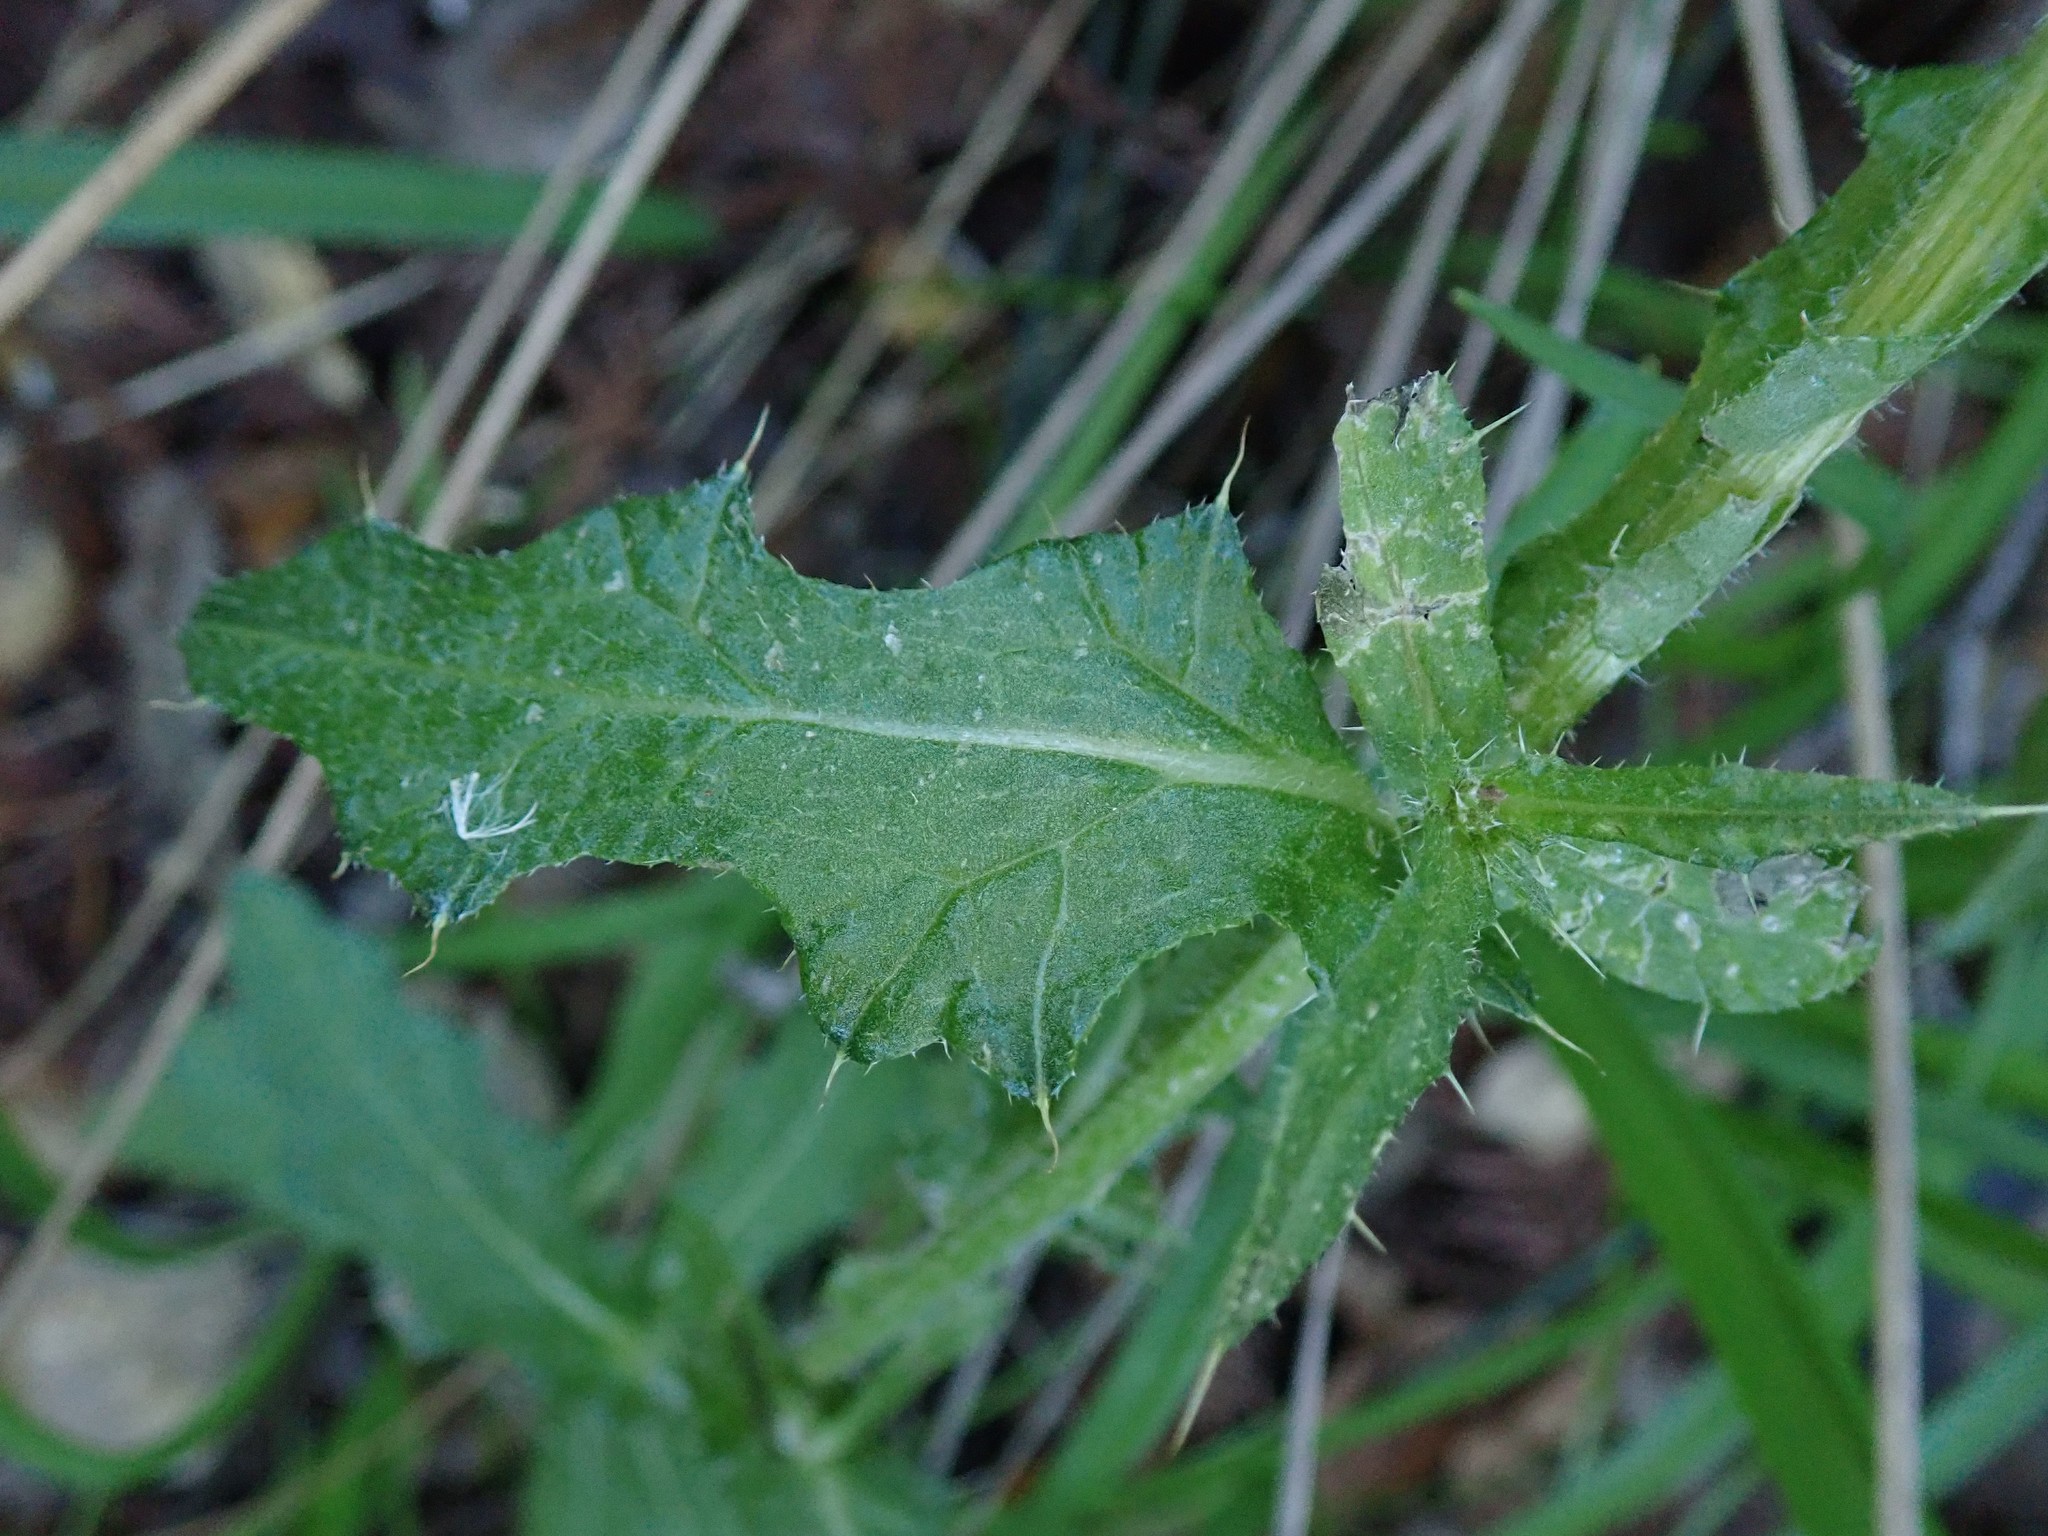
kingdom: Plantae
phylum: Tracheophyta
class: Magnoliopsida
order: Asterales
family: Asteraceae
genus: Cirsium
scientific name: Cirsium vulgare
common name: Bull thistle
